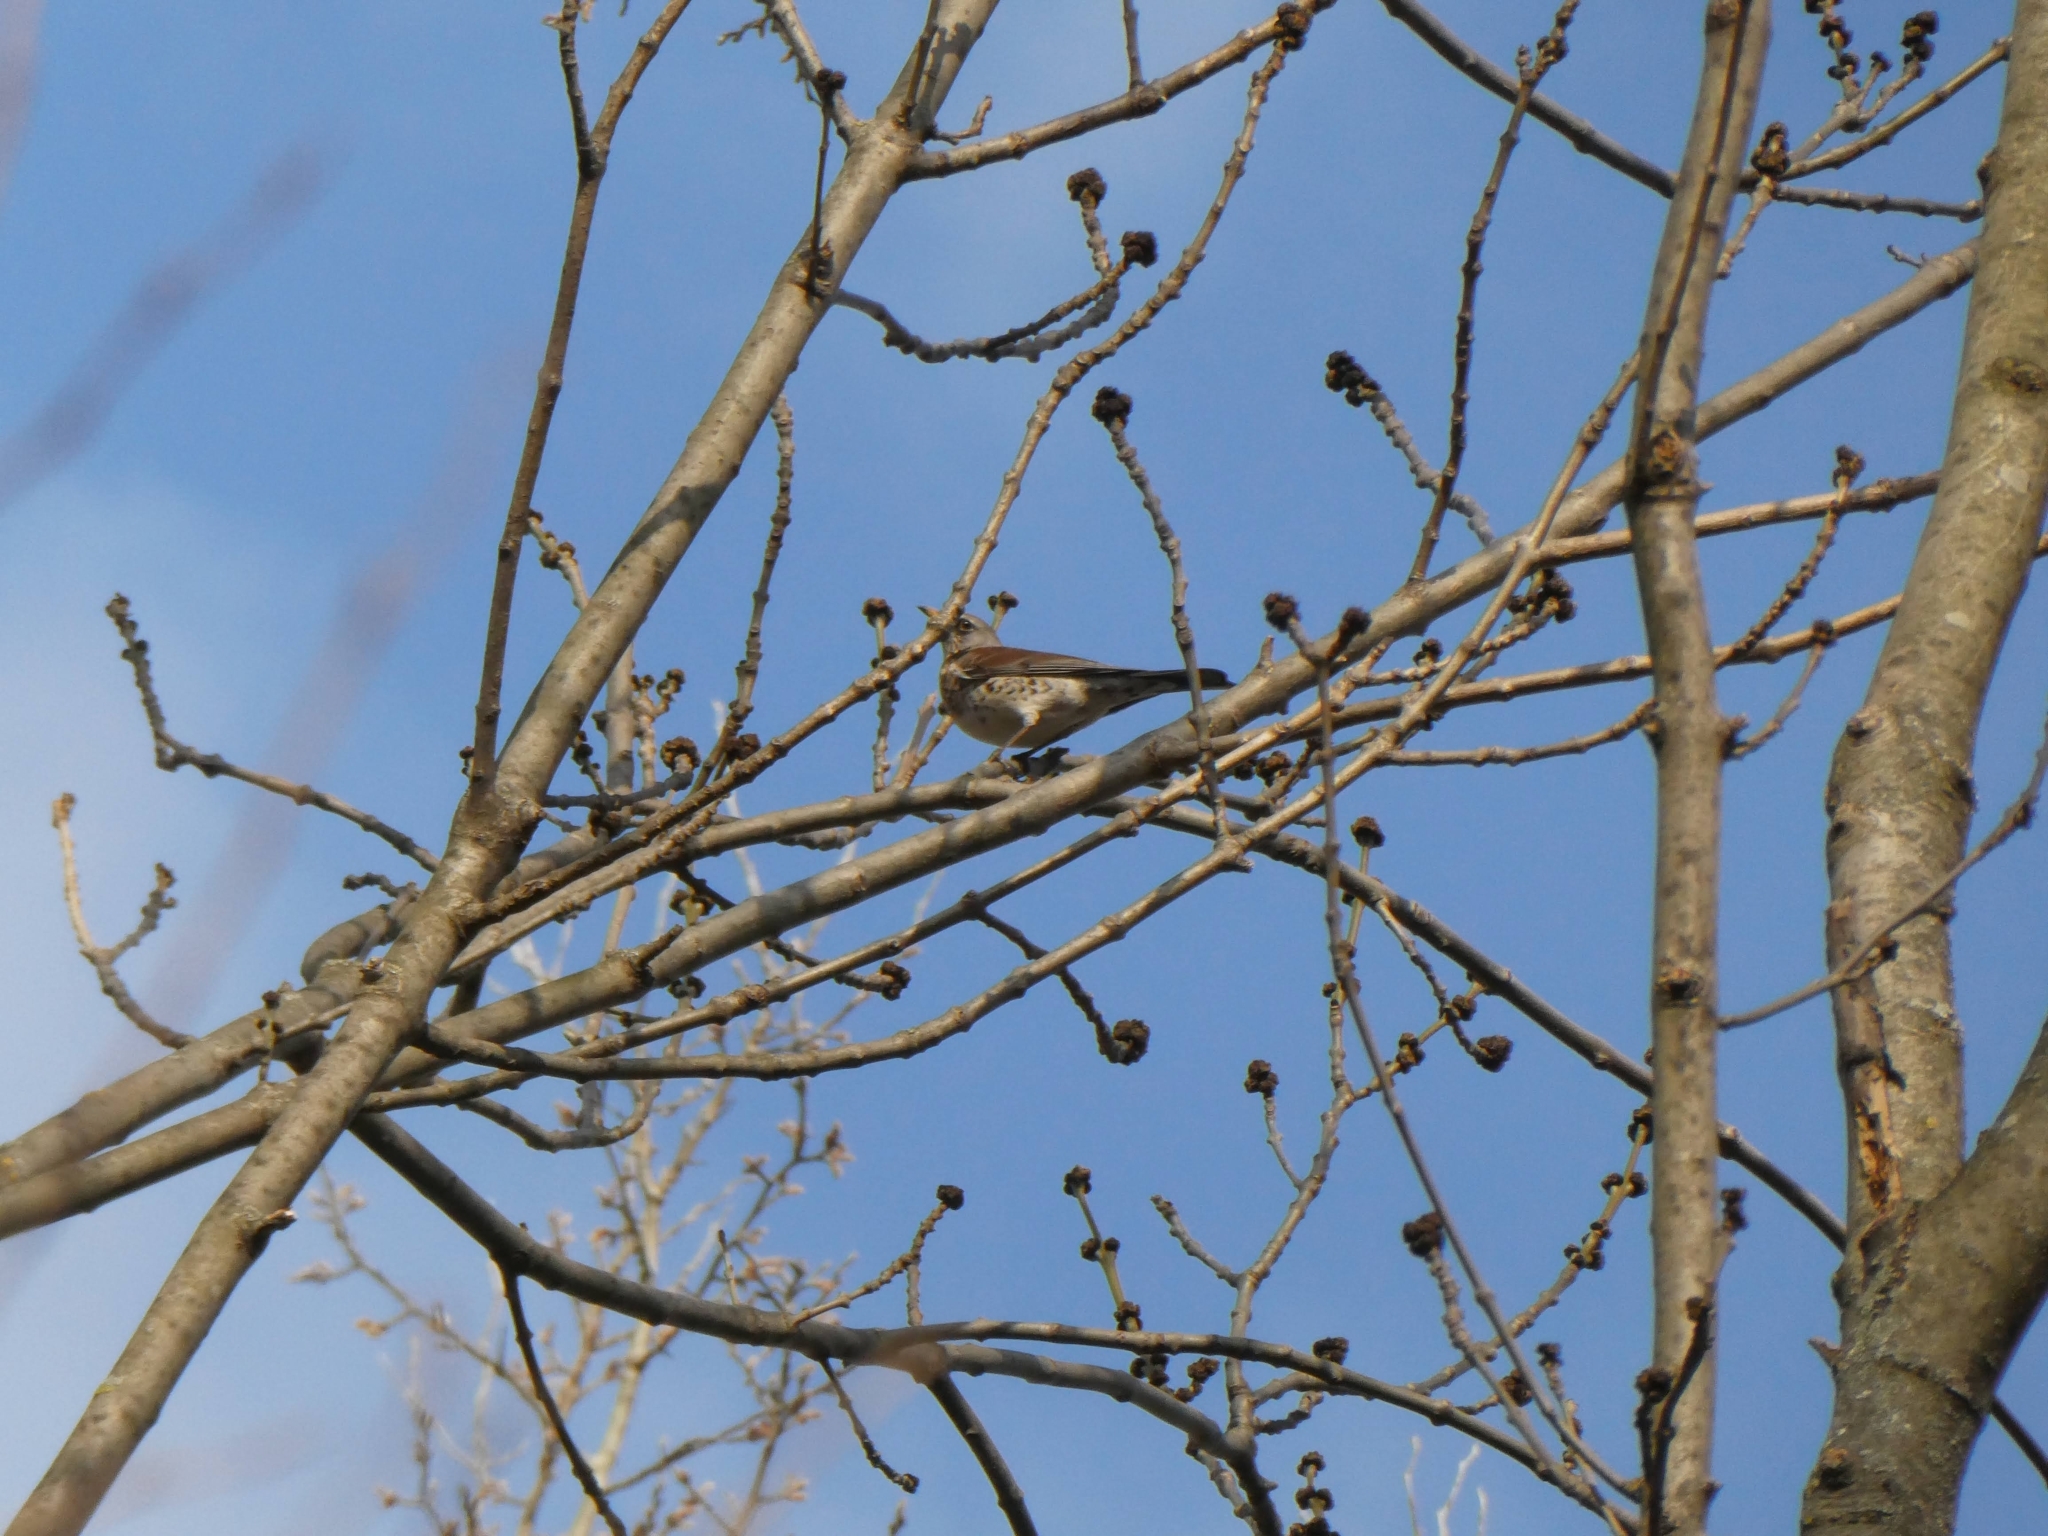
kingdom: Animalia
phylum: Chordata
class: Aves
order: Passeriformes
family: Turdidae
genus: Turdus
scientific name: Turdus pilaris
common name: Fieldfare
